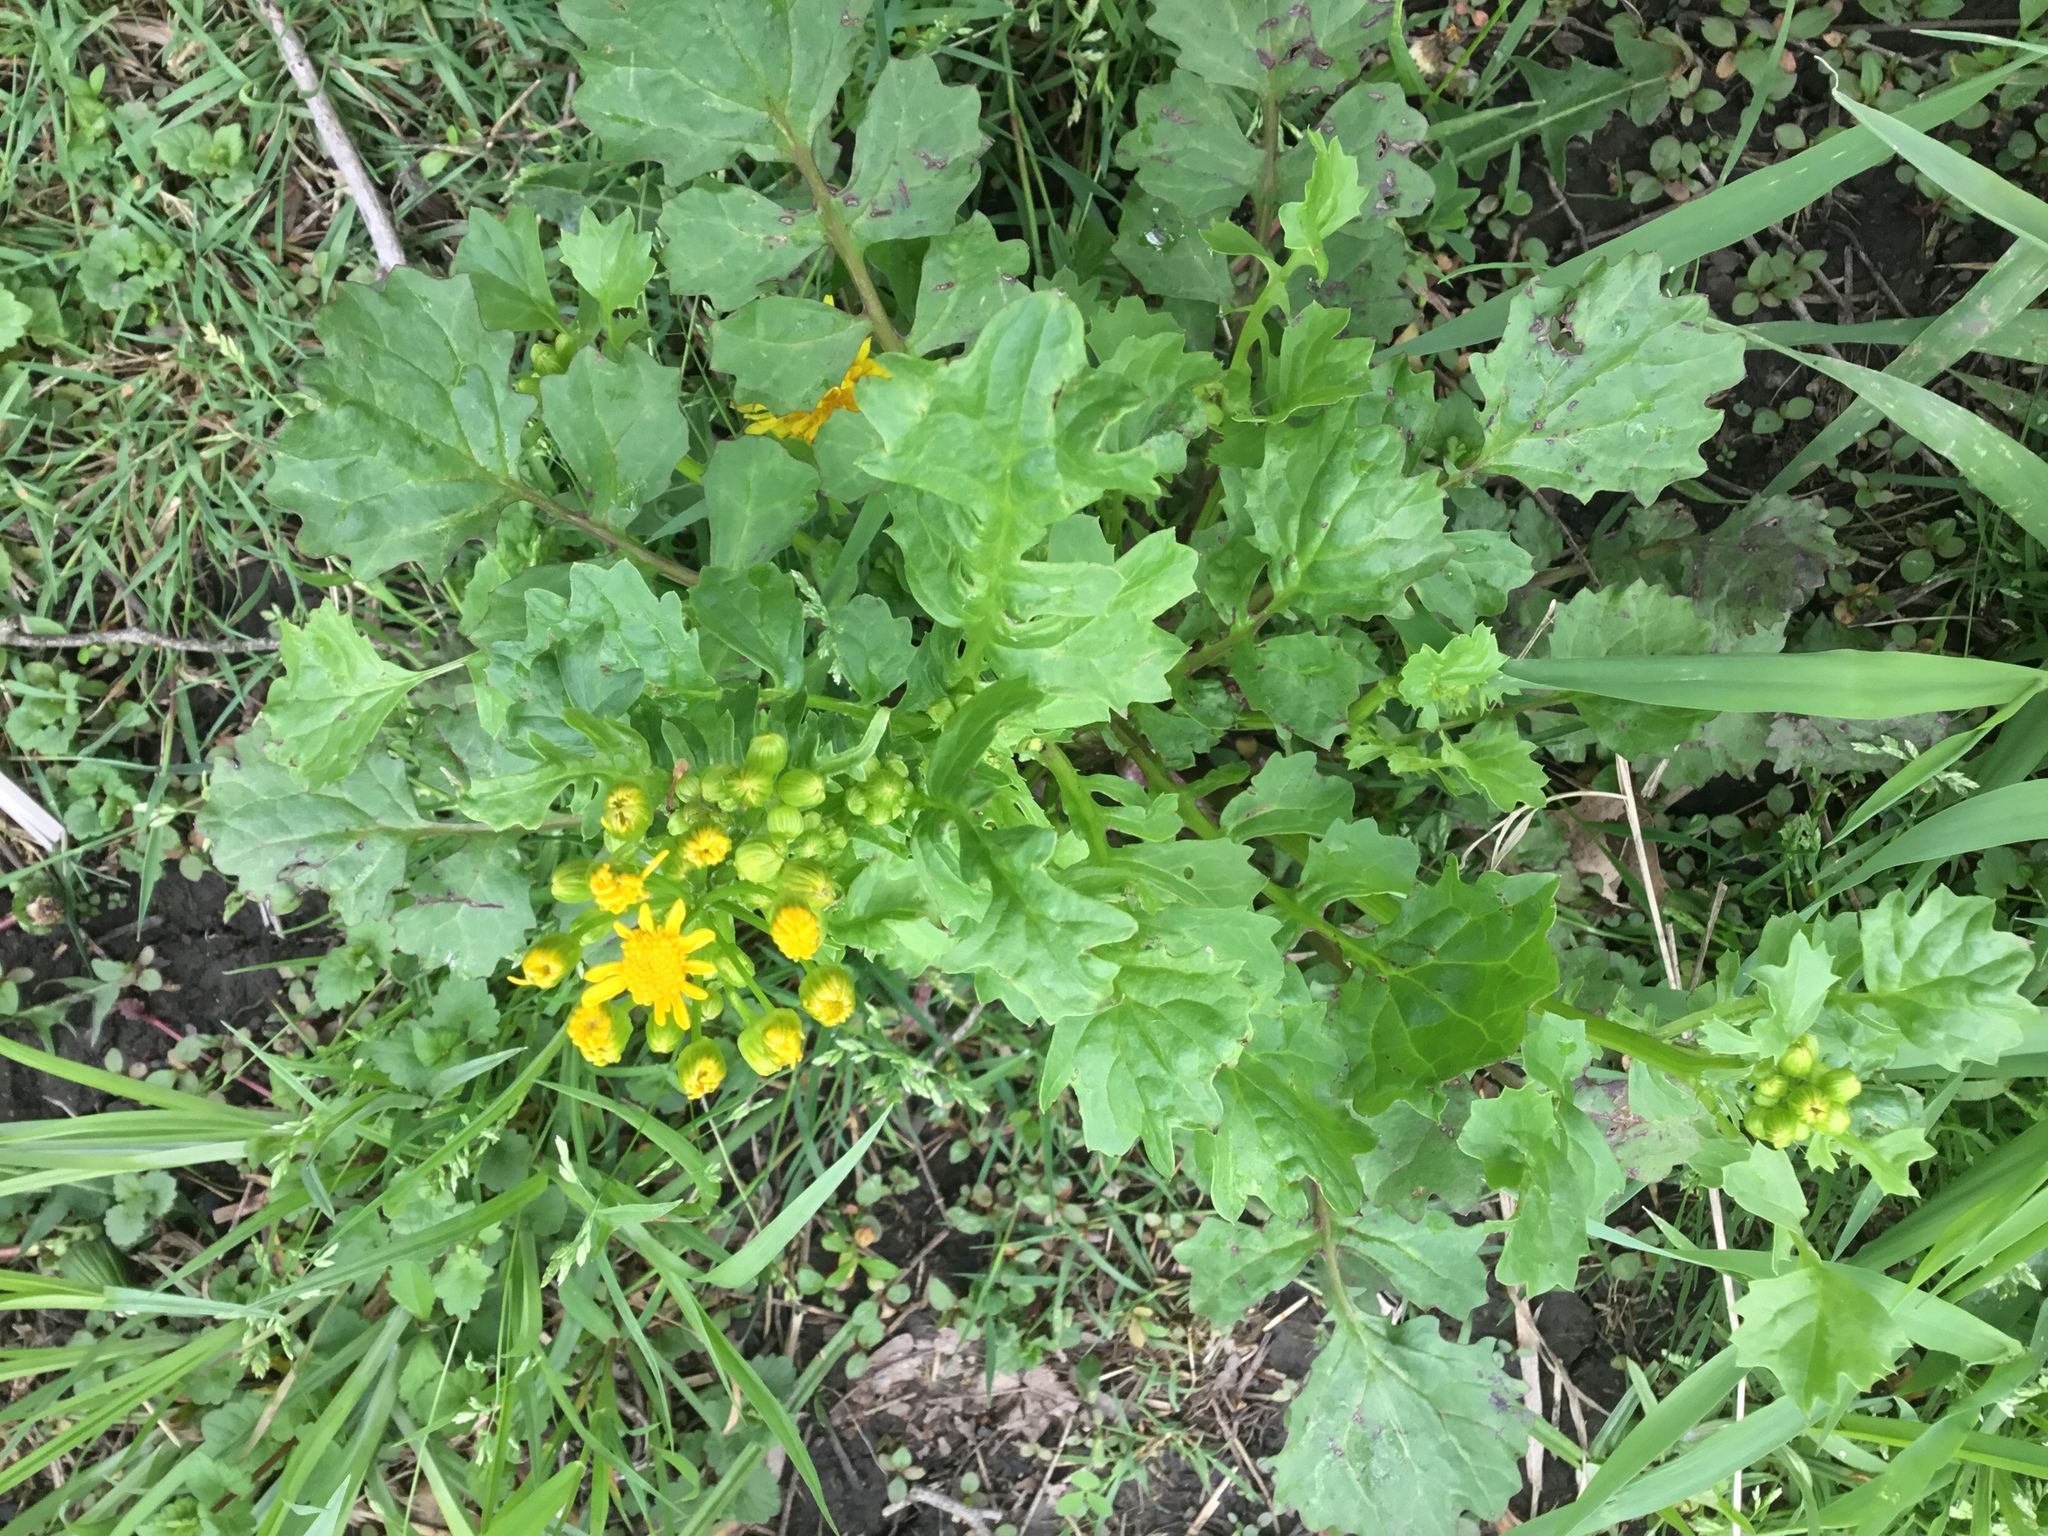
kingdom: Plantae
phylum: Tracheophyta
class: Magnoliopsida
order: Asterales
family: Asteraceae
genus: Packera
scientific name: Packera glabella
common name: Butterweed
